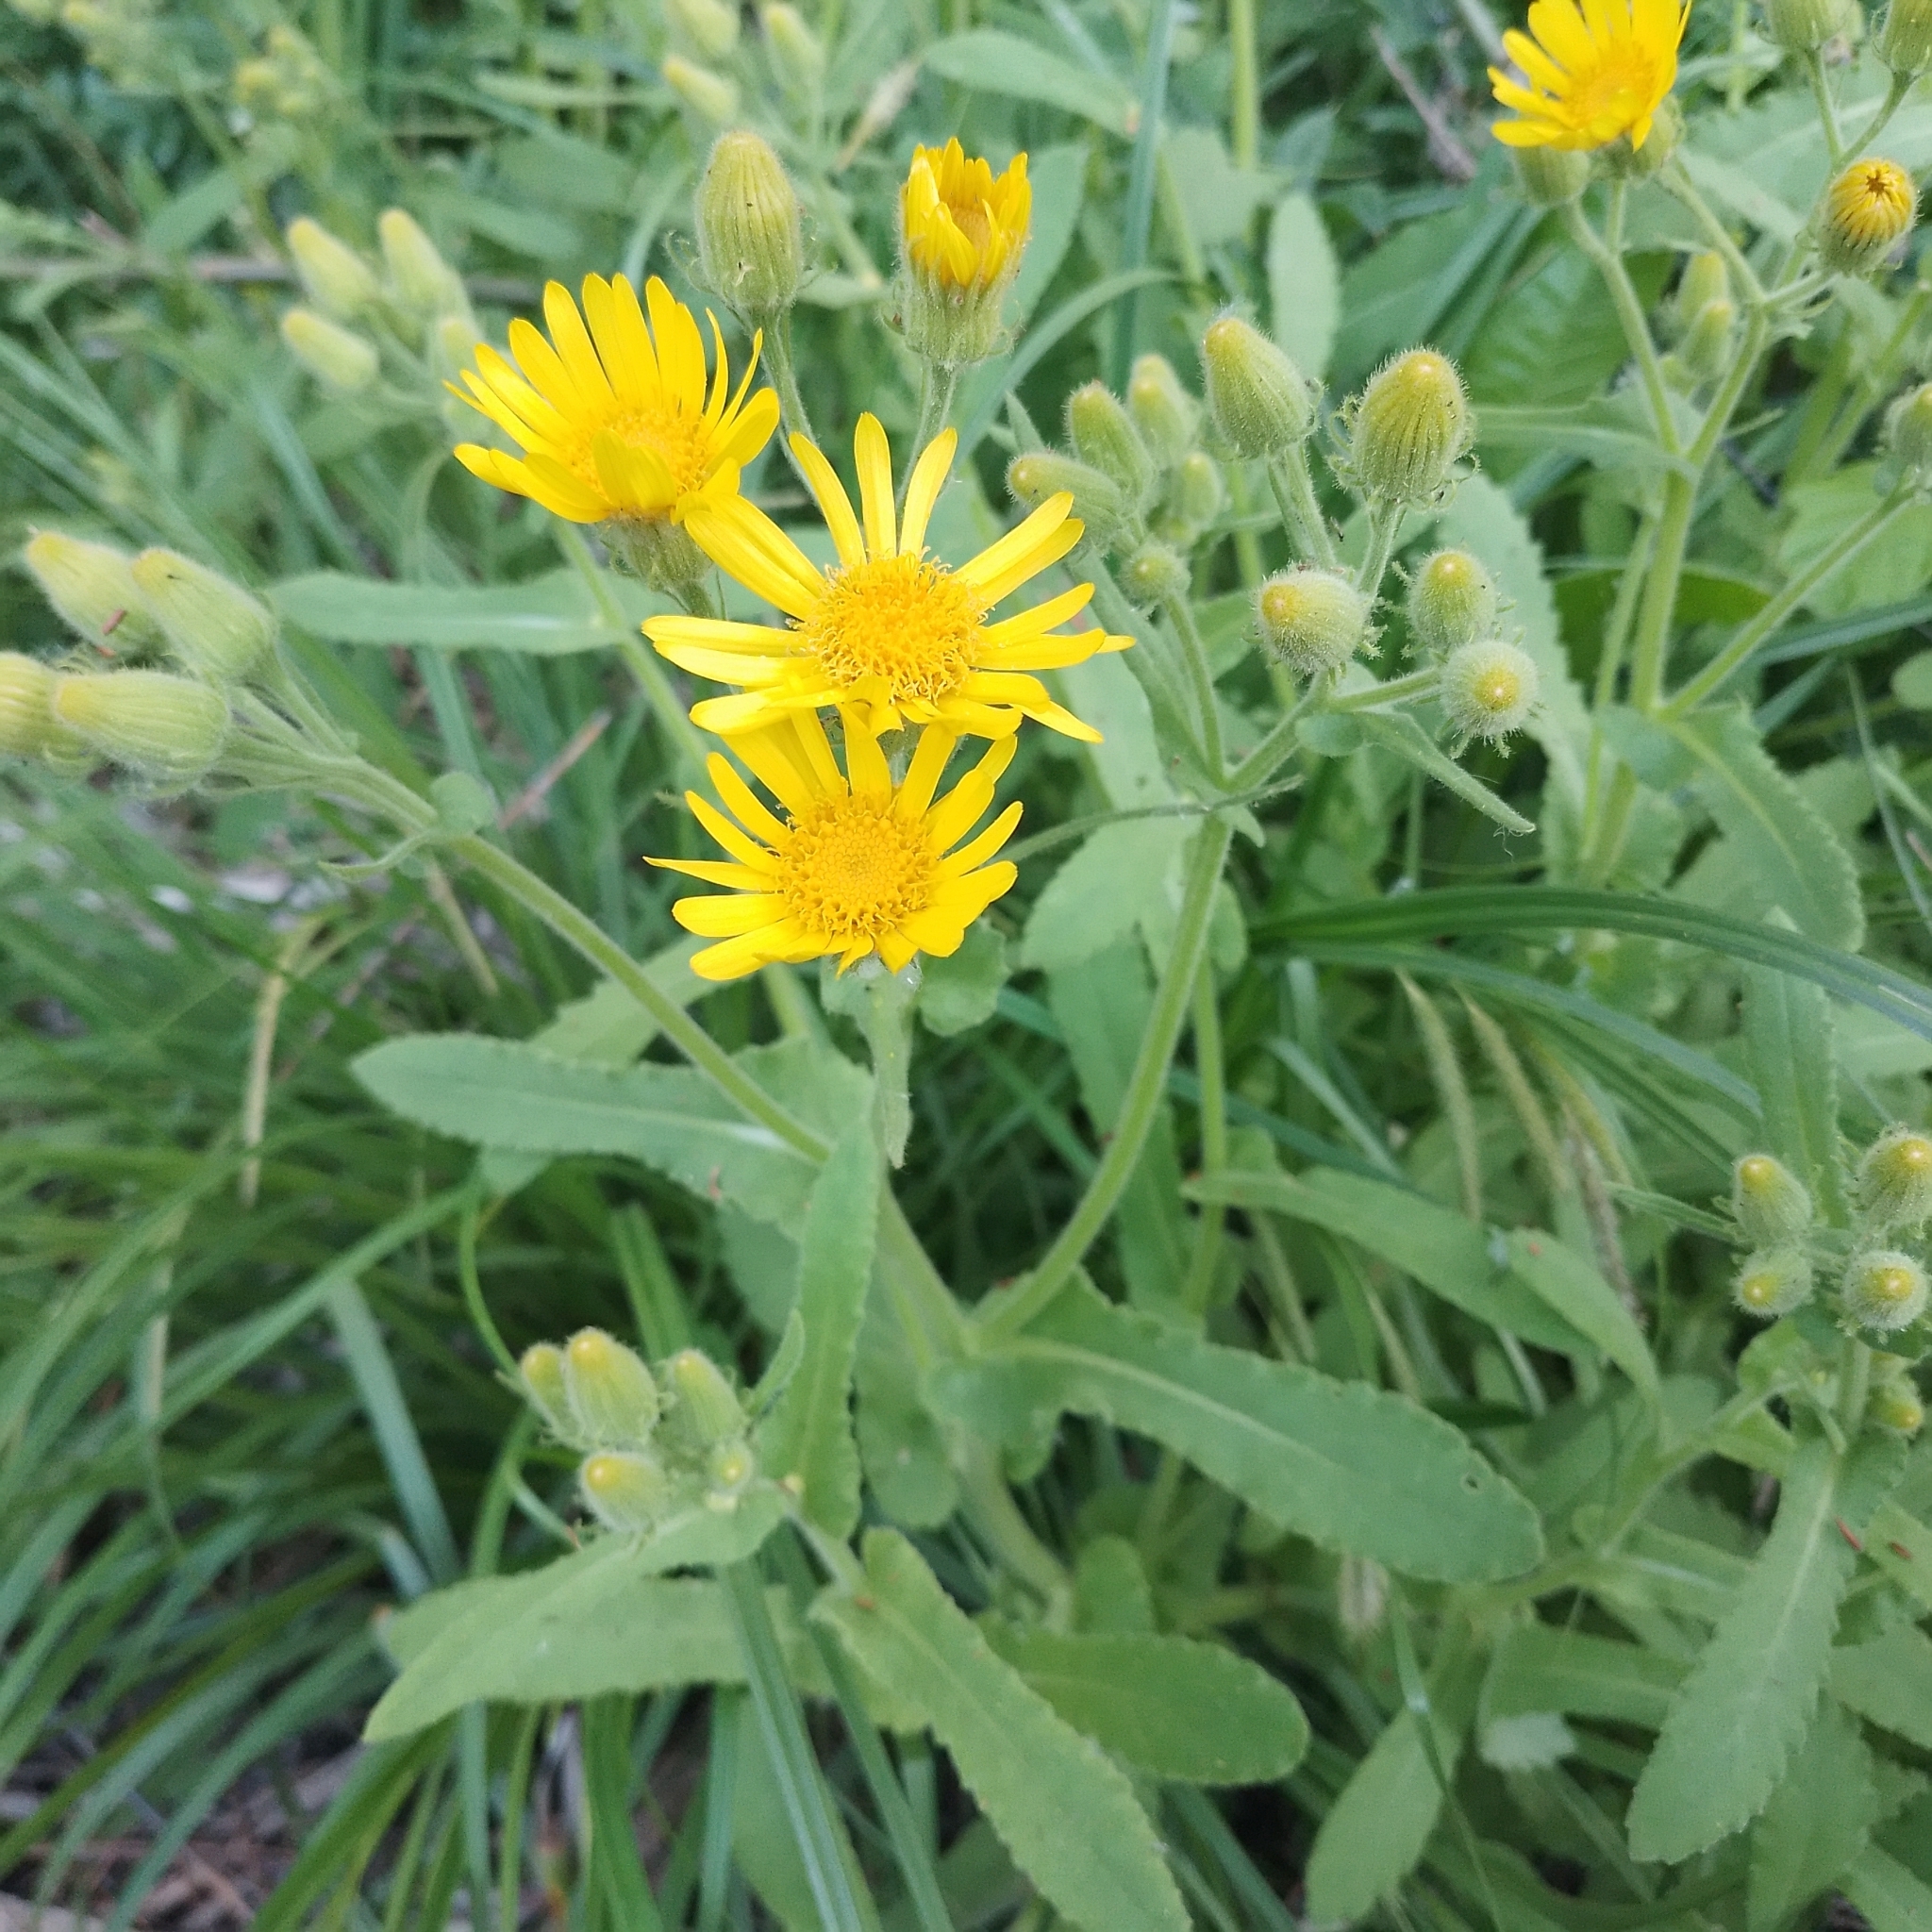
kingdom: Plantae
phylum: Tracheophyta
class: Magnoliopsida
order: Asterales
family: Asteraceae
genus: Senecio
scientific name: Senecio selloi
